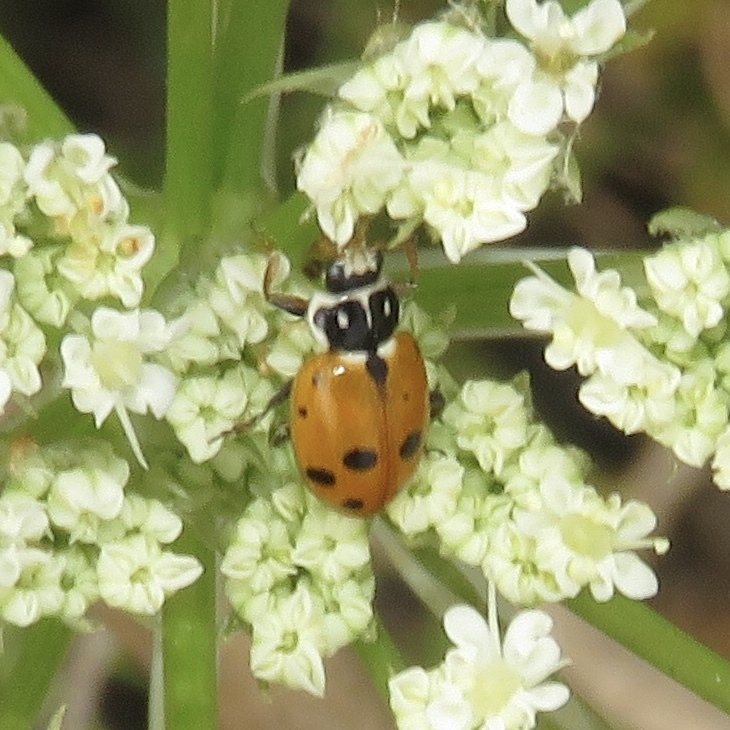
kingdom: Animalia
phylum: Arthropoda
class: Insecta
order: Coleoptera
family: Coccinellidae
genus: Hippodamia
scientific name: Hippodamia variegata
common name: Ladybird beetle
